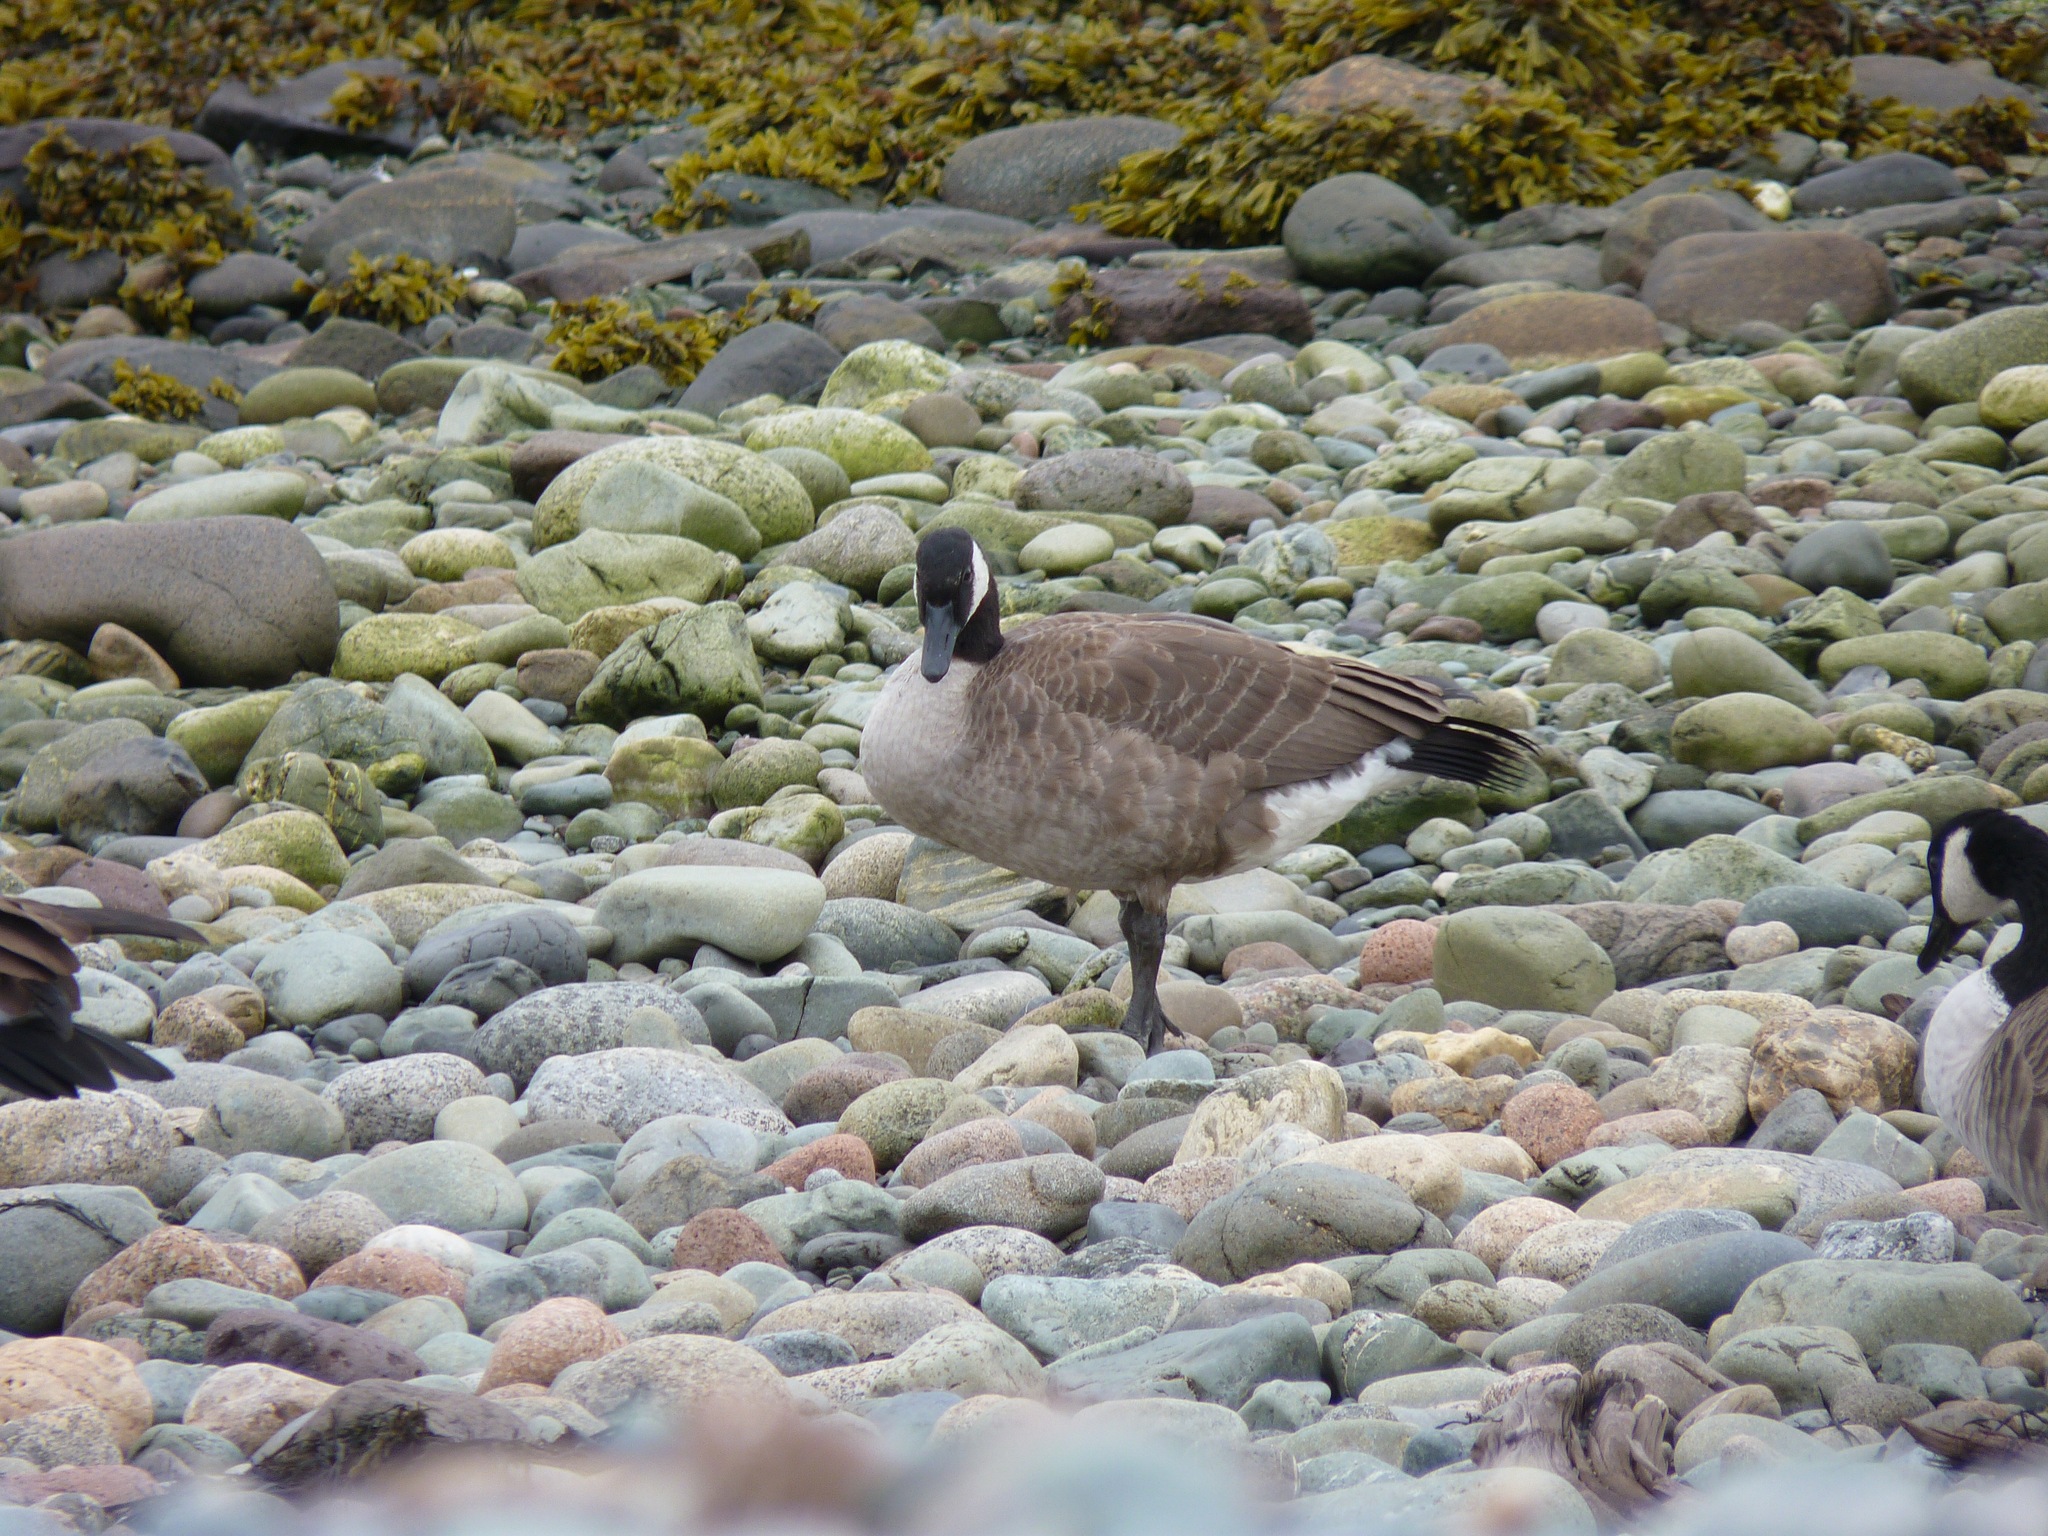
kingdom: Animalia
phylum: Chordata
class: Aves
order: Anseriformes
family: Anatidae
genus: Branta
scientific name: Branta canadensis
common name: Canada goose
